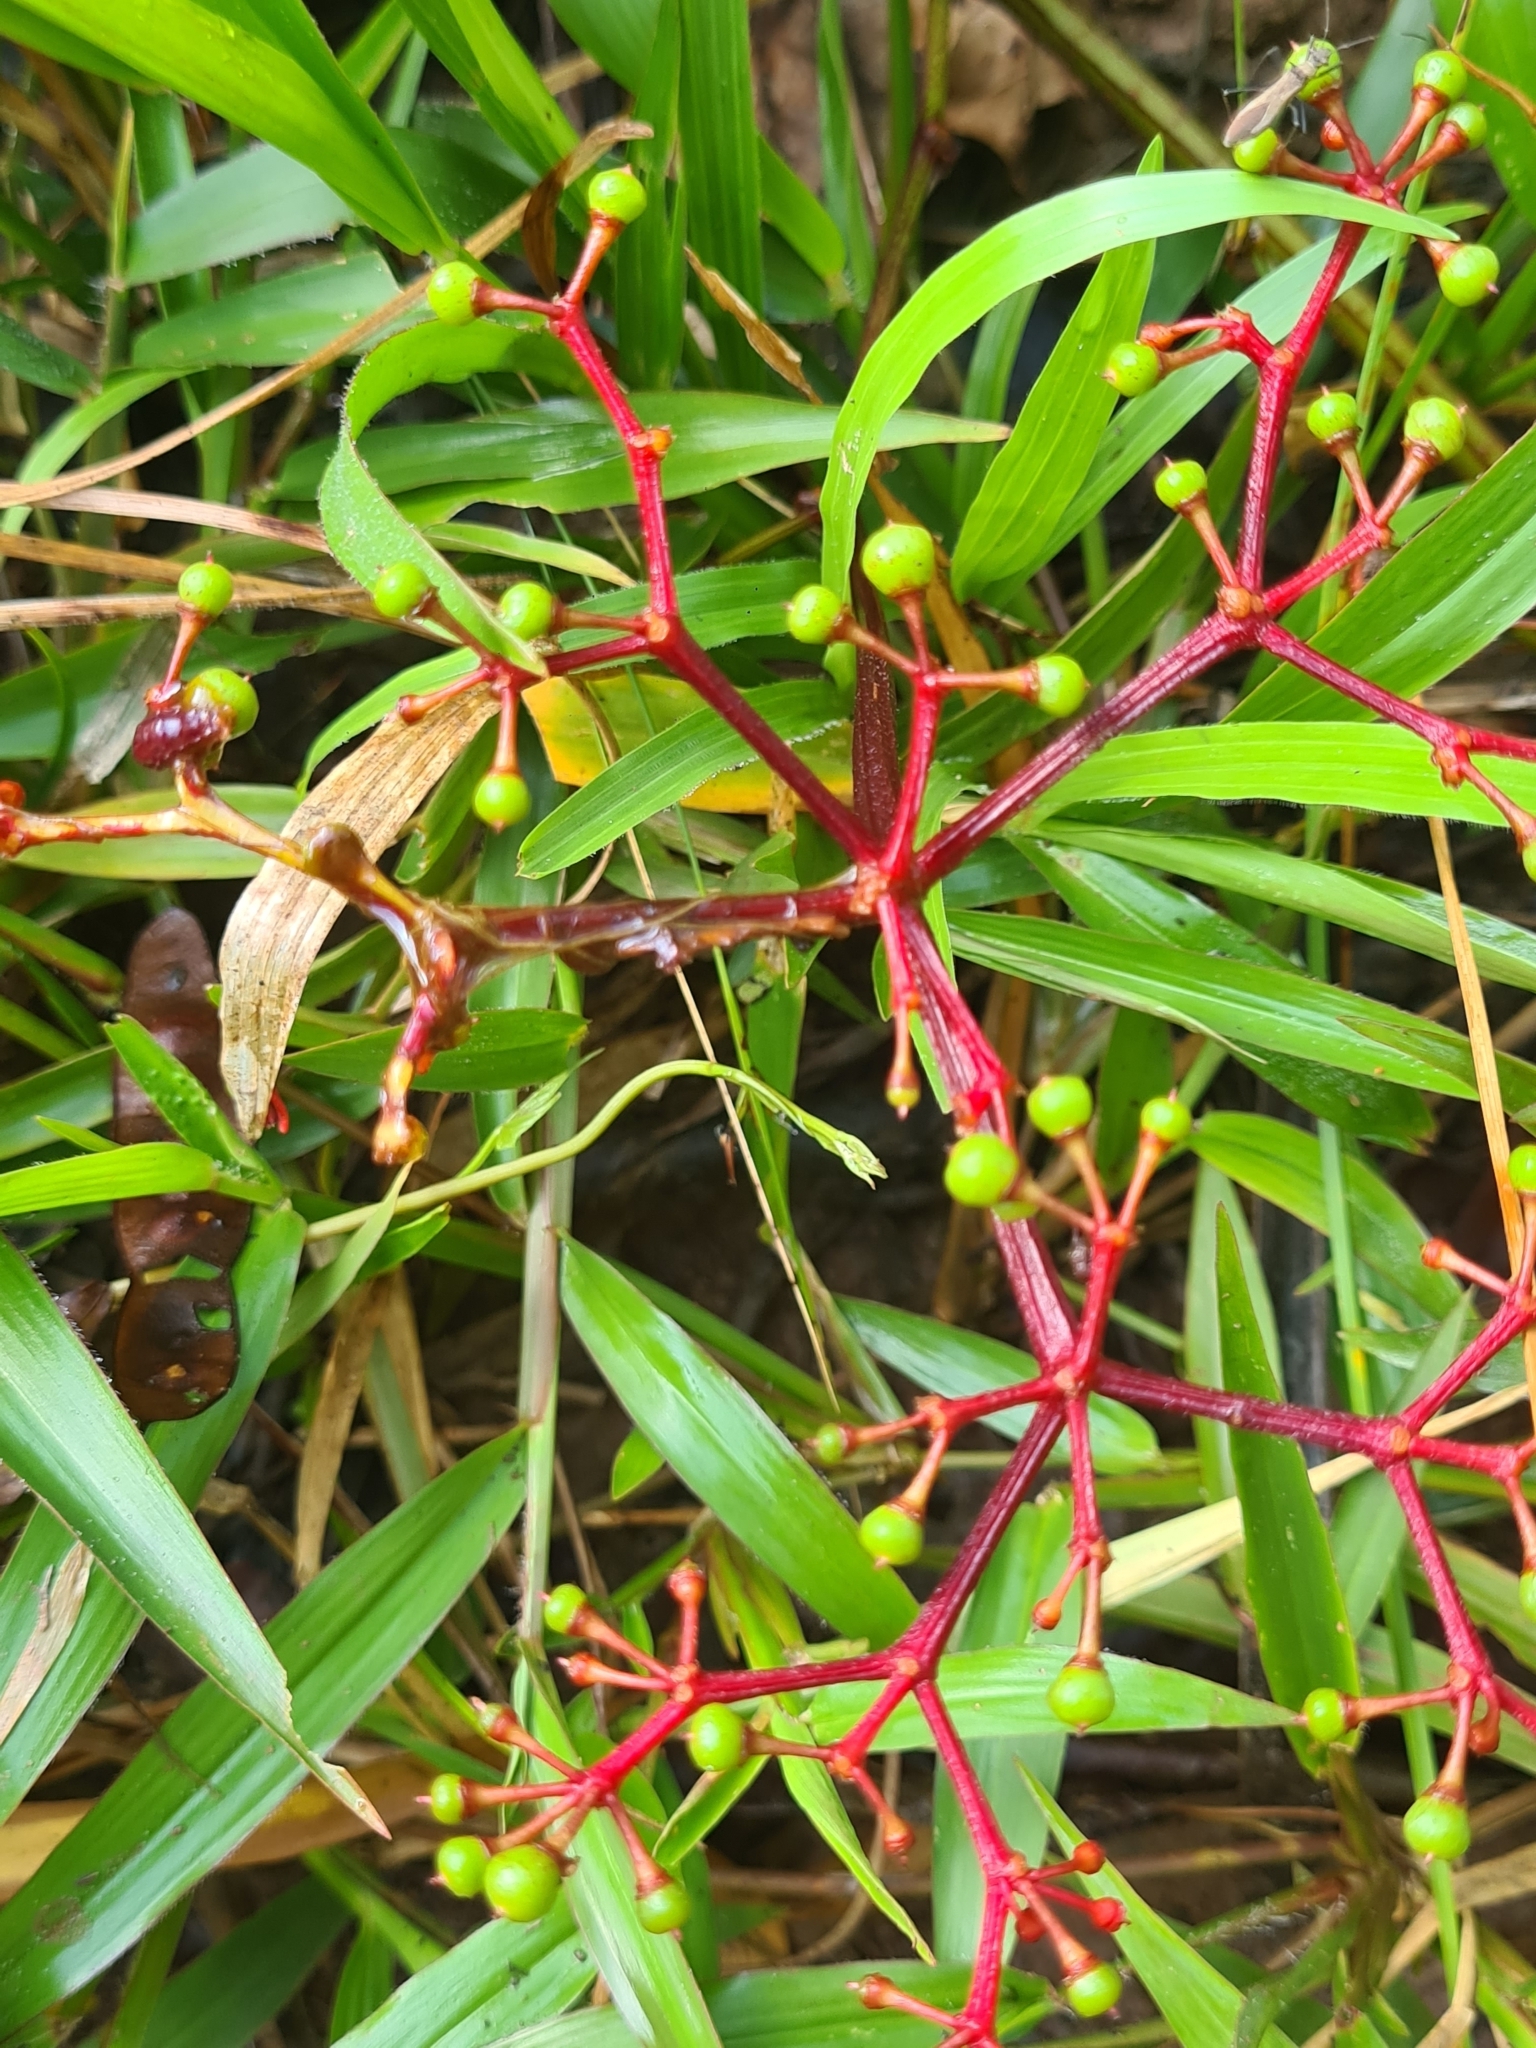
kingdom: Plantae
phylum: Tracheophyta
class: Magnoliopsida
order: Vitales
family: Vitaceae
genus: Cissus
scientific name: Cissus erosa
